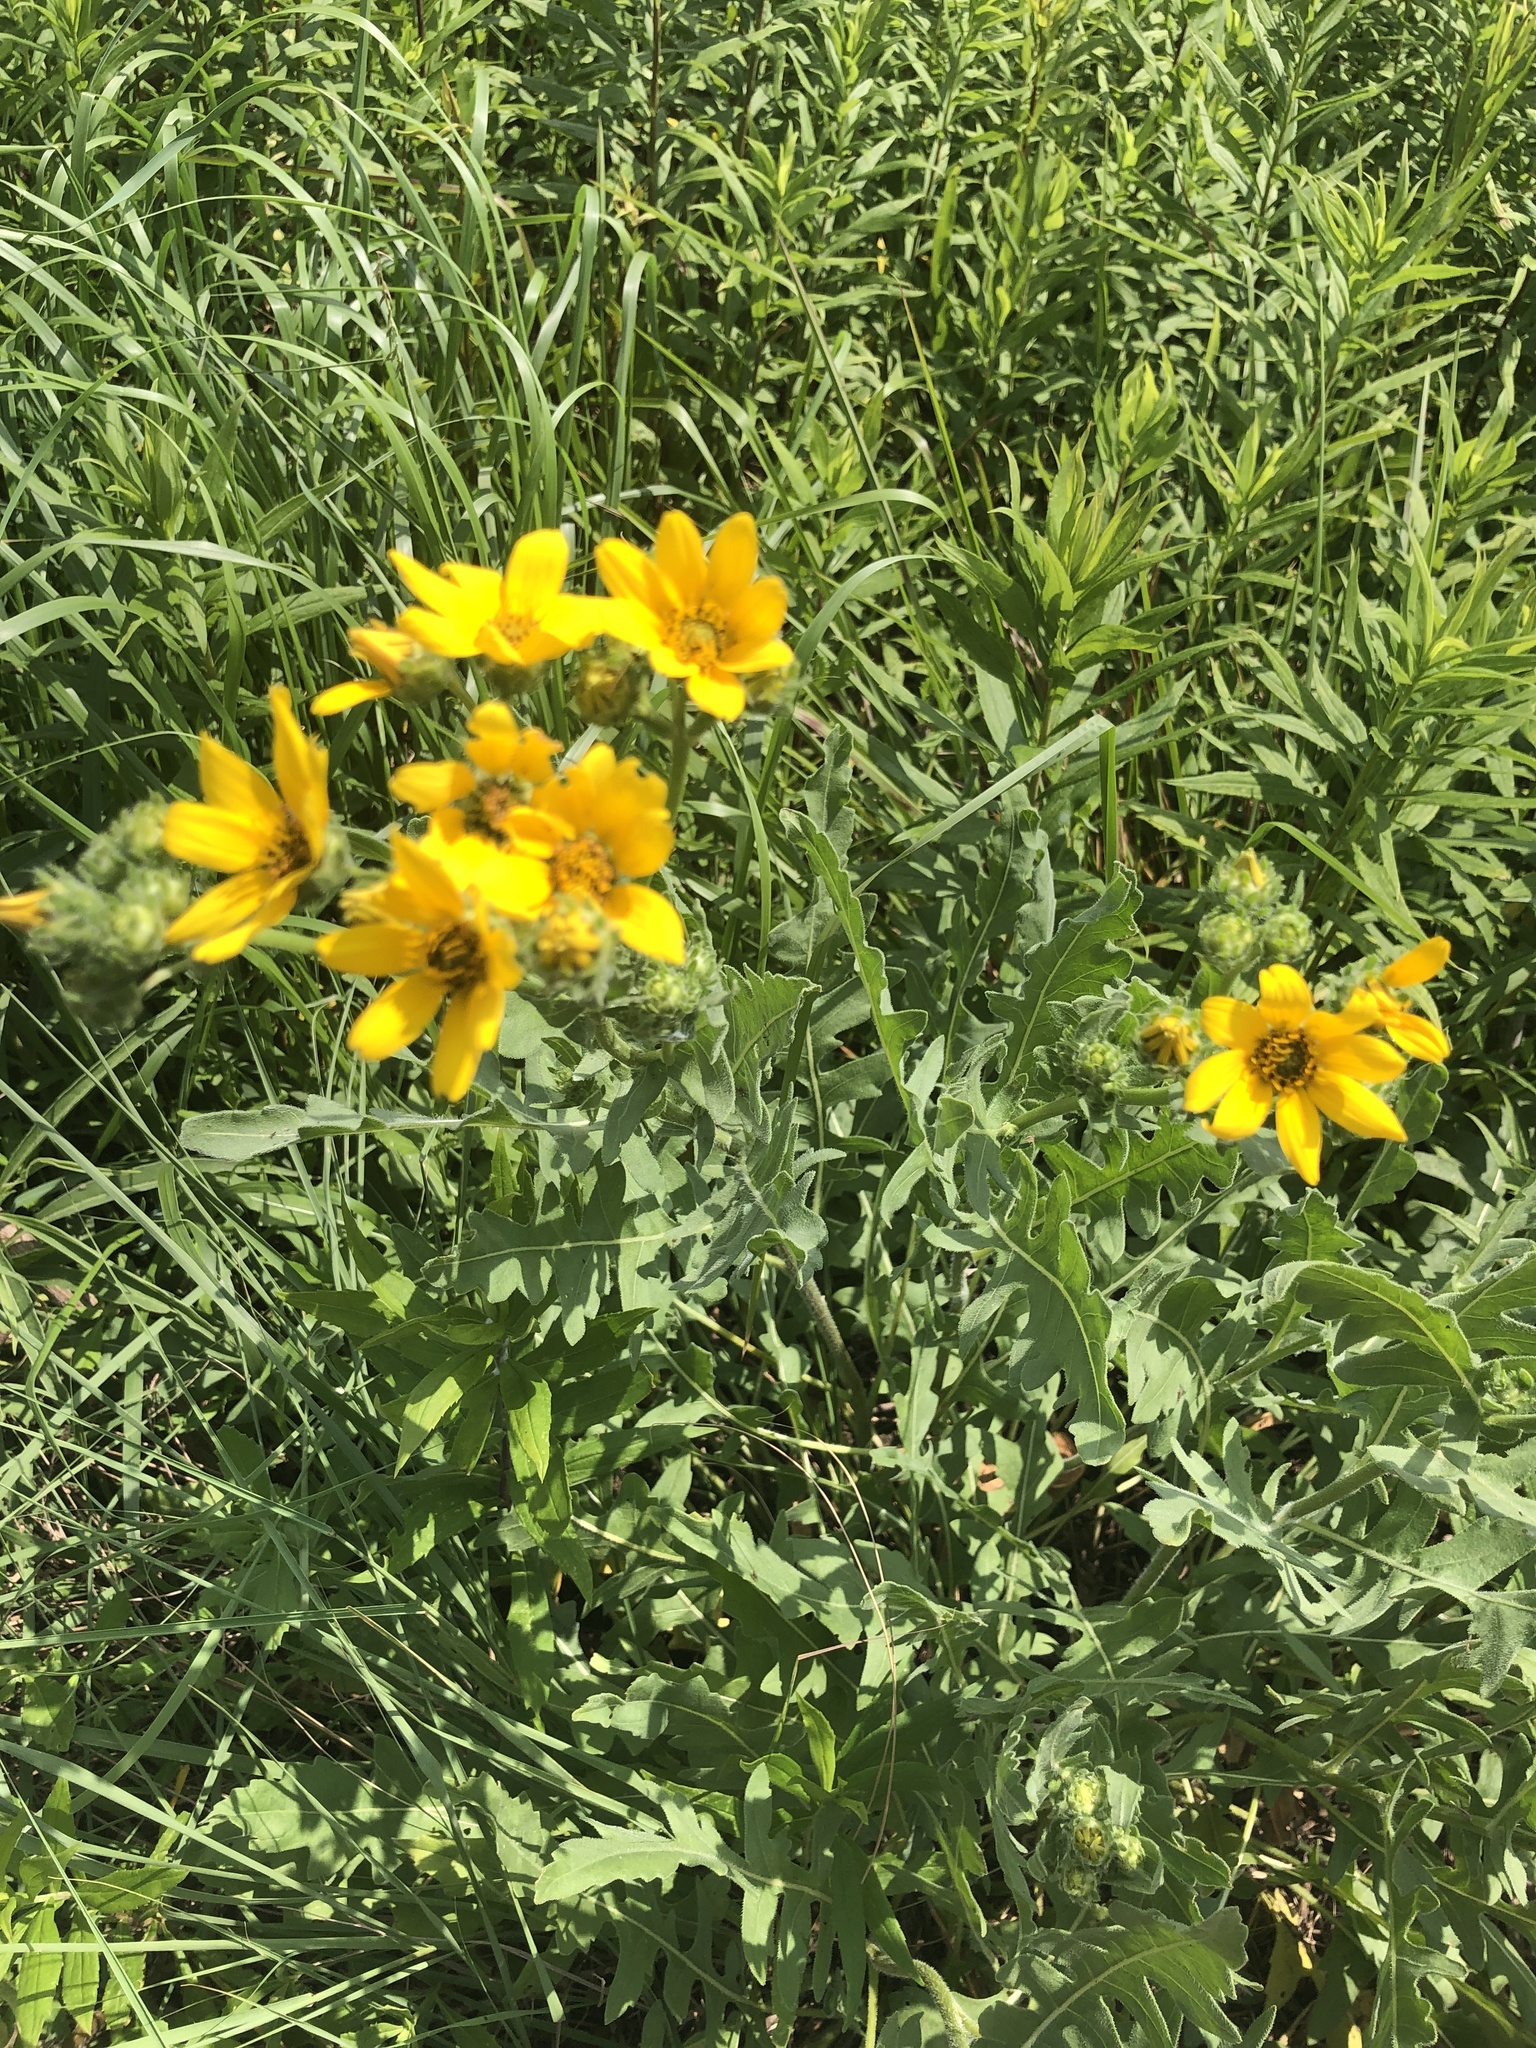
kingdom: Plantae
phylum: Tracheophyta
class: Magnoliopsida
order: Asterales
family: Asteraceae
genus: Engelmannia
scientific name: Engelmannia peristenia
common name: Engelmann's daisy
